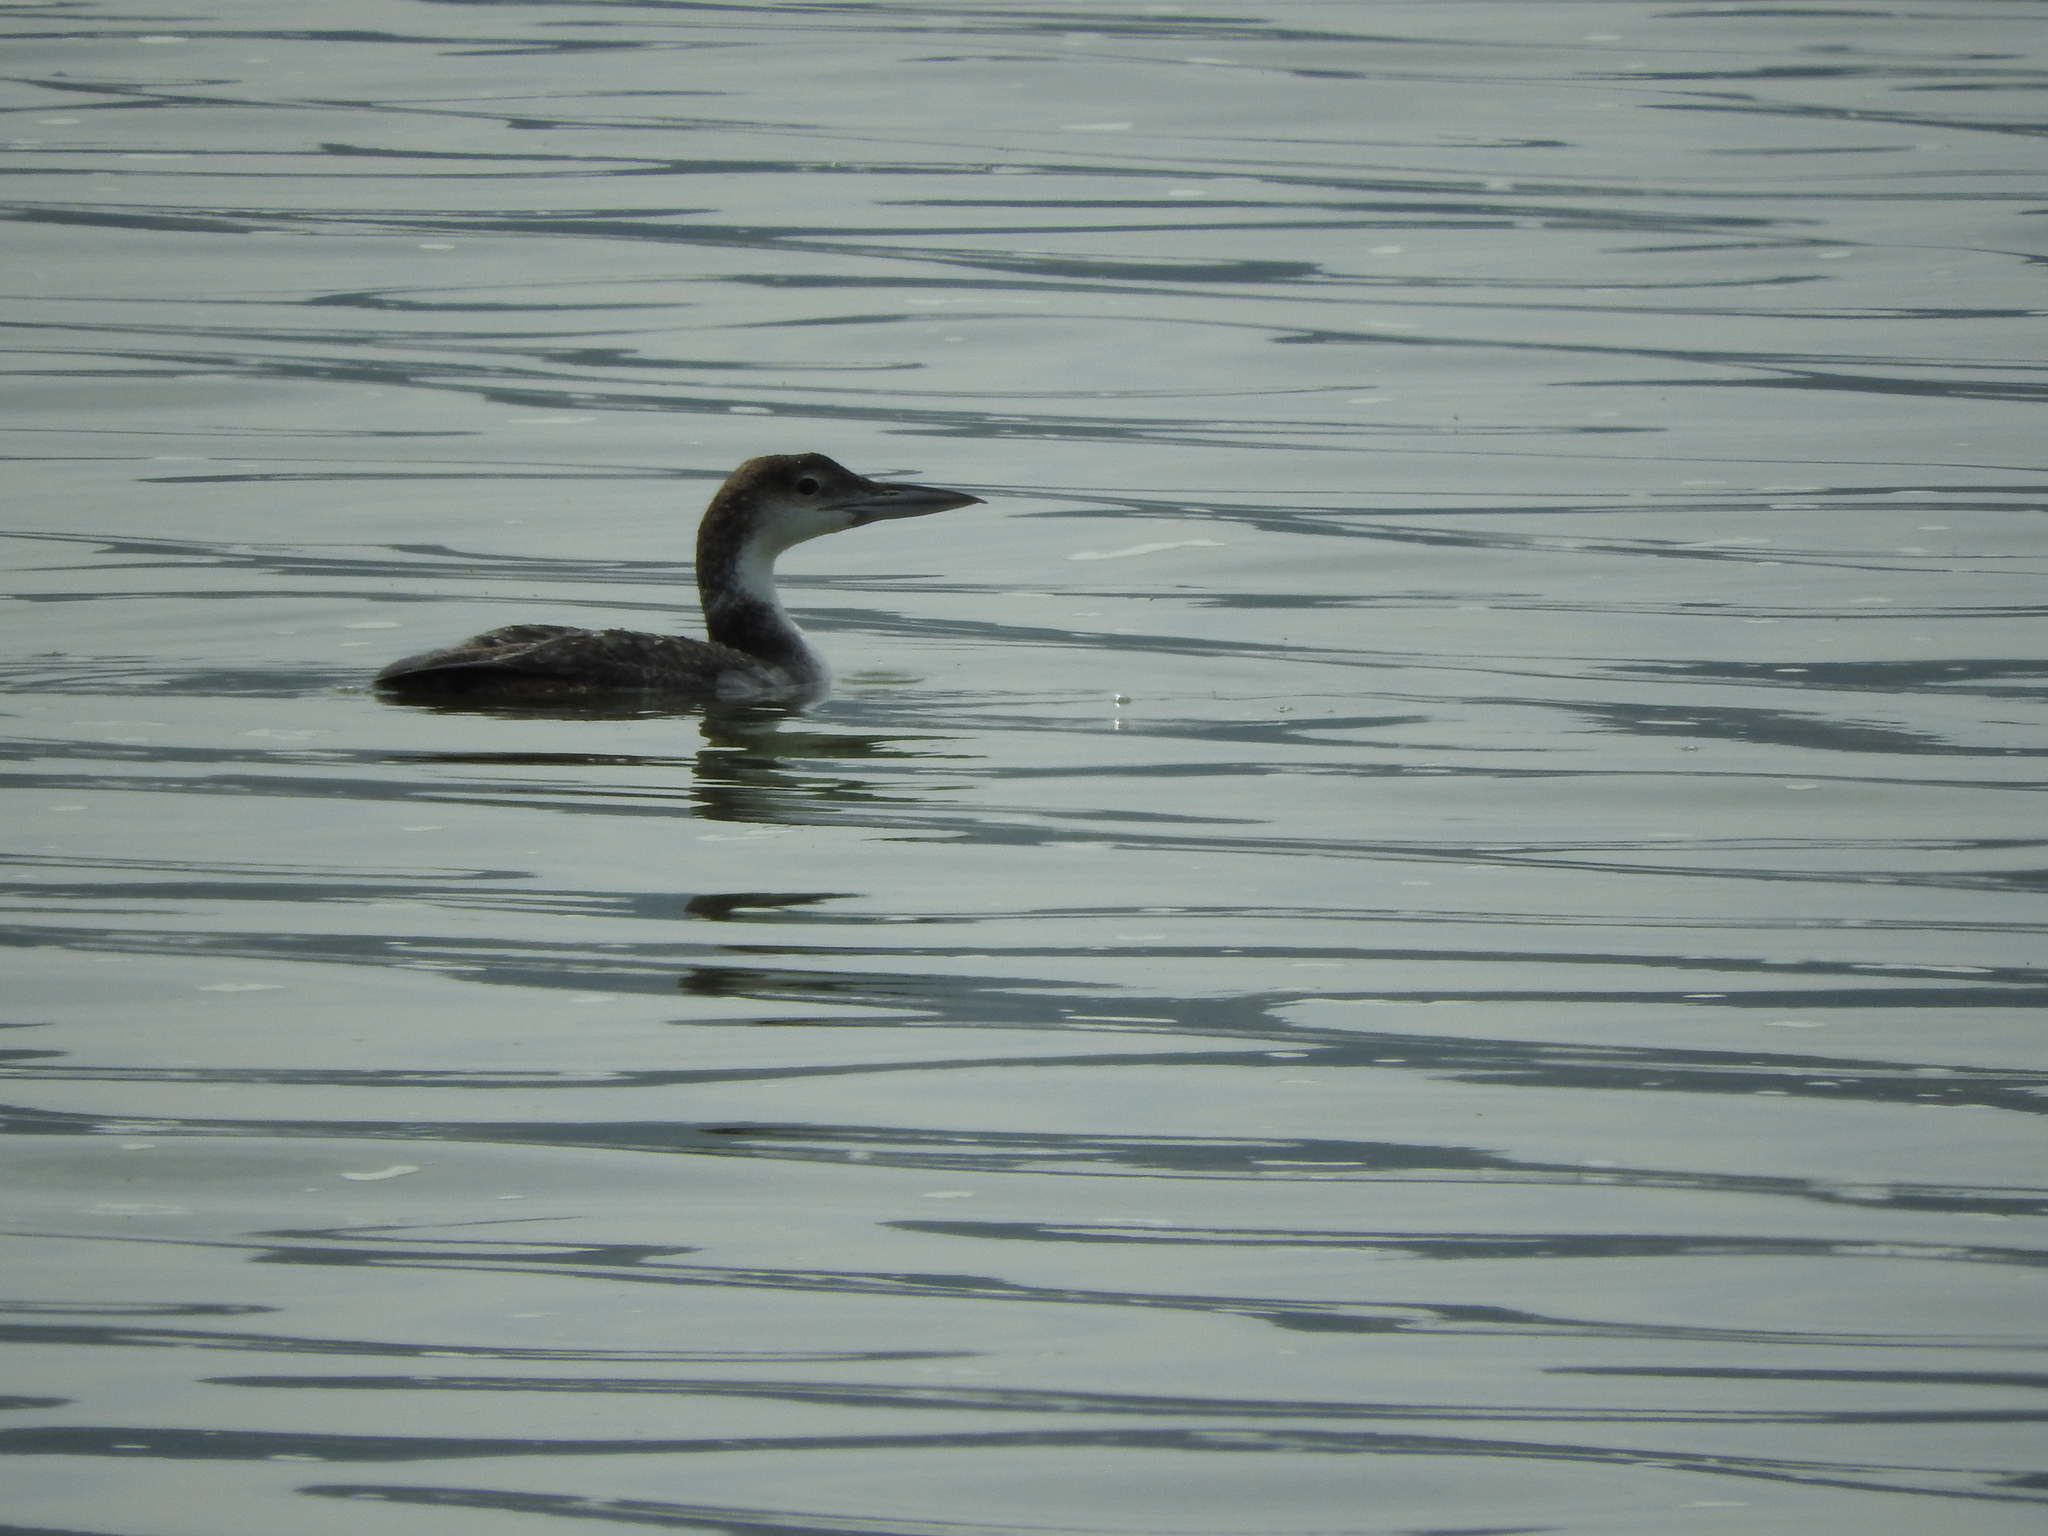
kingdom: Animalia
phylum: Chordata
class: Aves
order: Gaviiformes
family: Gaviidae
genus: Gavia
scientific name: Gavia immer
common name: Common loon
